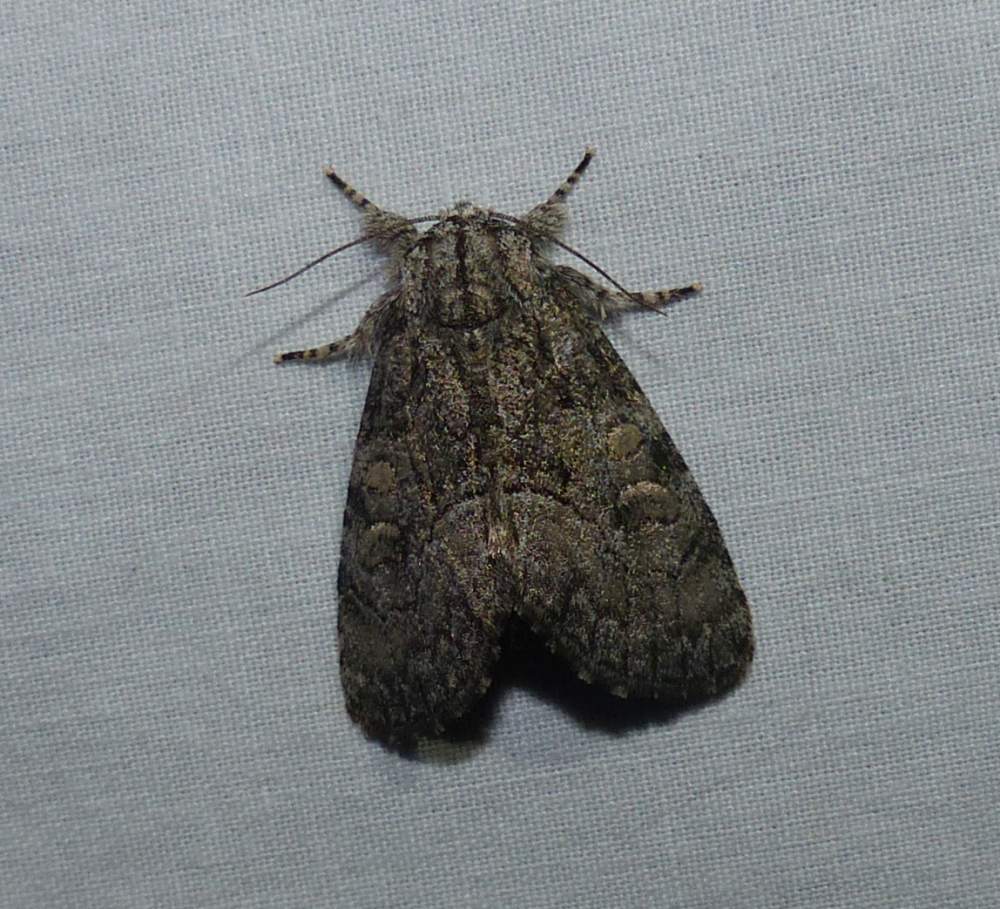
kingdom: Animalia
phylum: Arthropoda
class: Insecta
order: Lepidoptera
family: Noctuidae
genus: Raphia
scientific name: Raphia frater
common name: Brother
